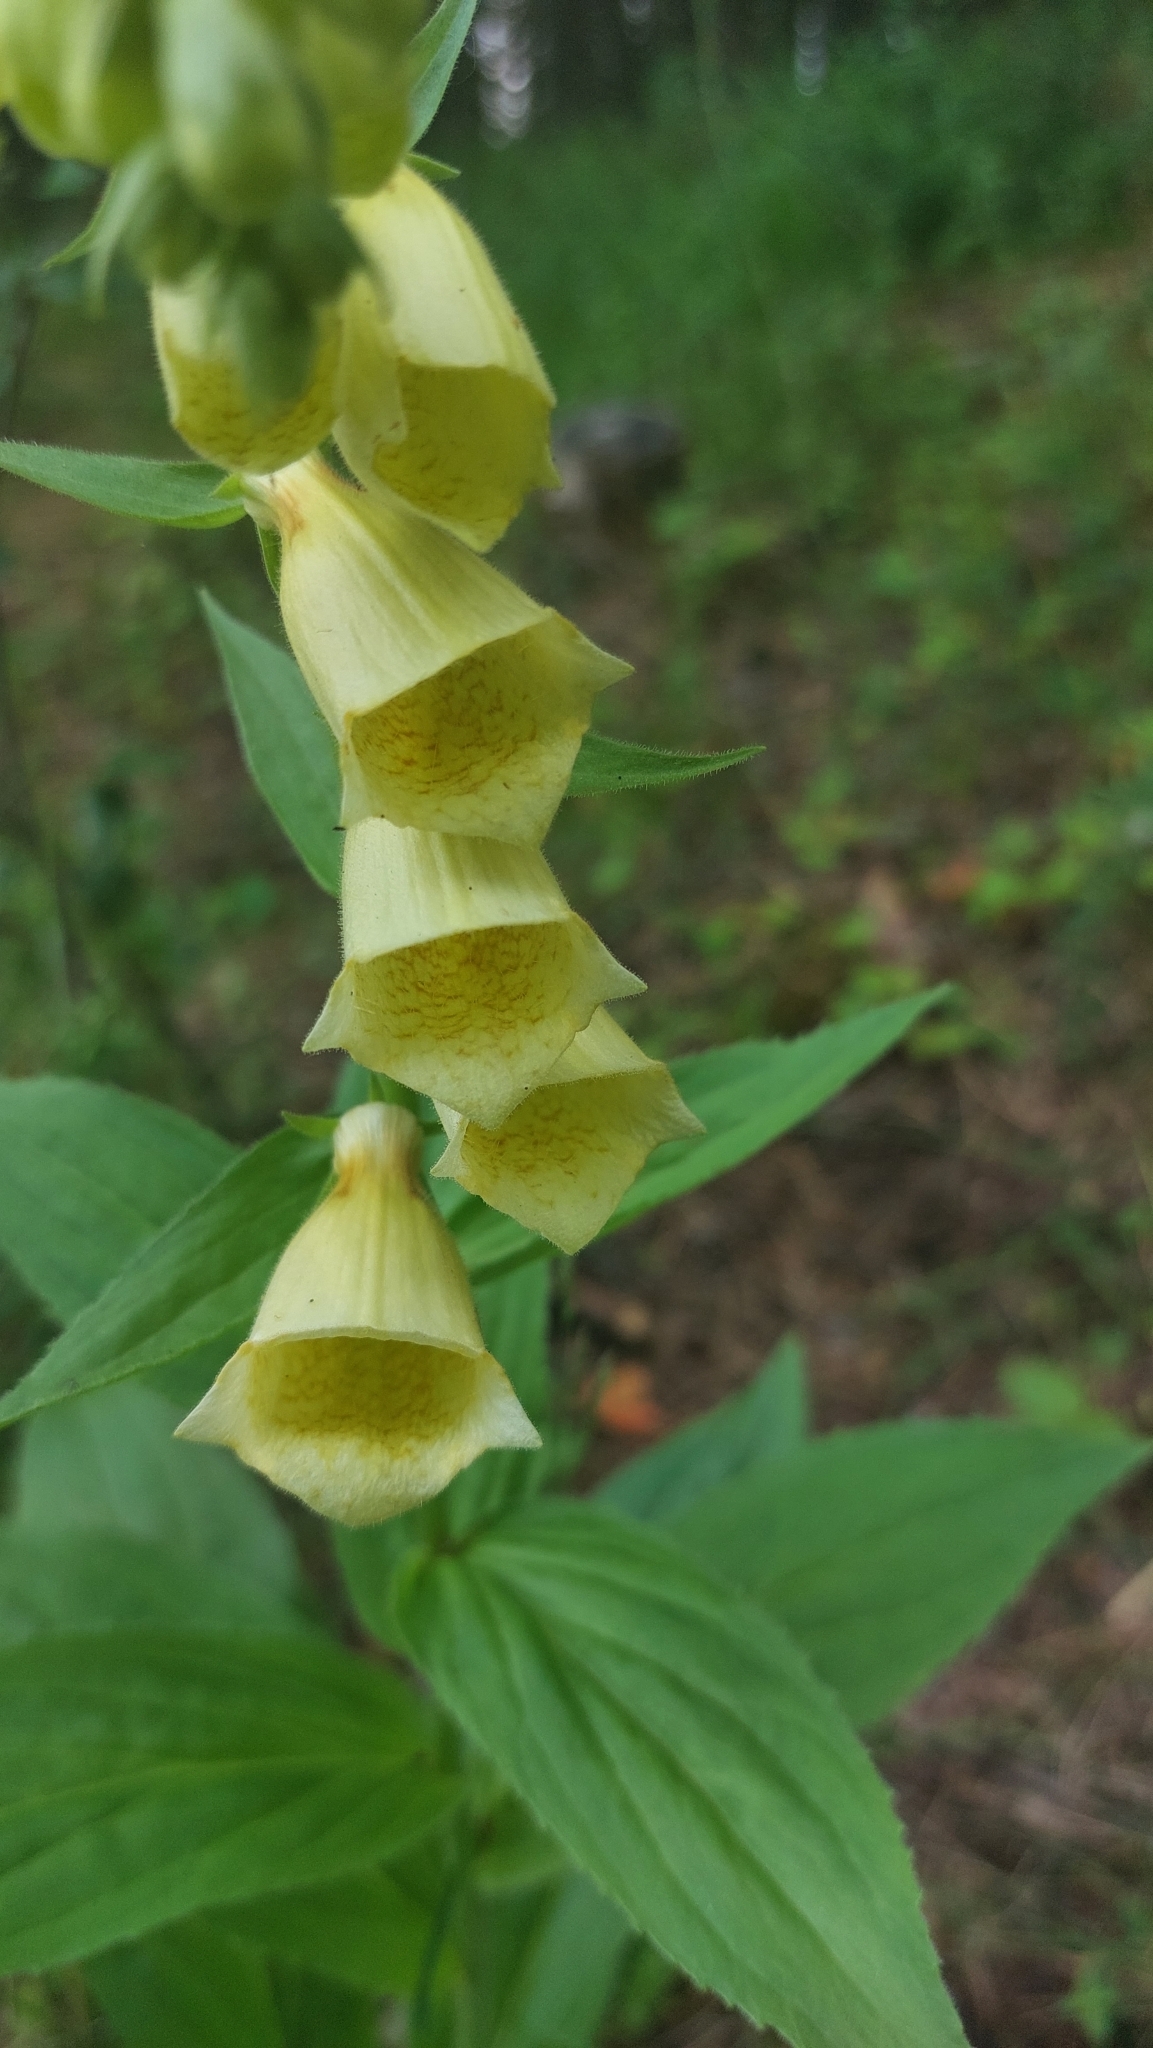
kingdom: Plantae
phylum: Tracheophyta
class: Magnoliopsida
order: Lamiales
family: Plantaginaceae
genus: Digitalis
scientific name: Digitalis grandiflora
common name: Yellow foxglove
